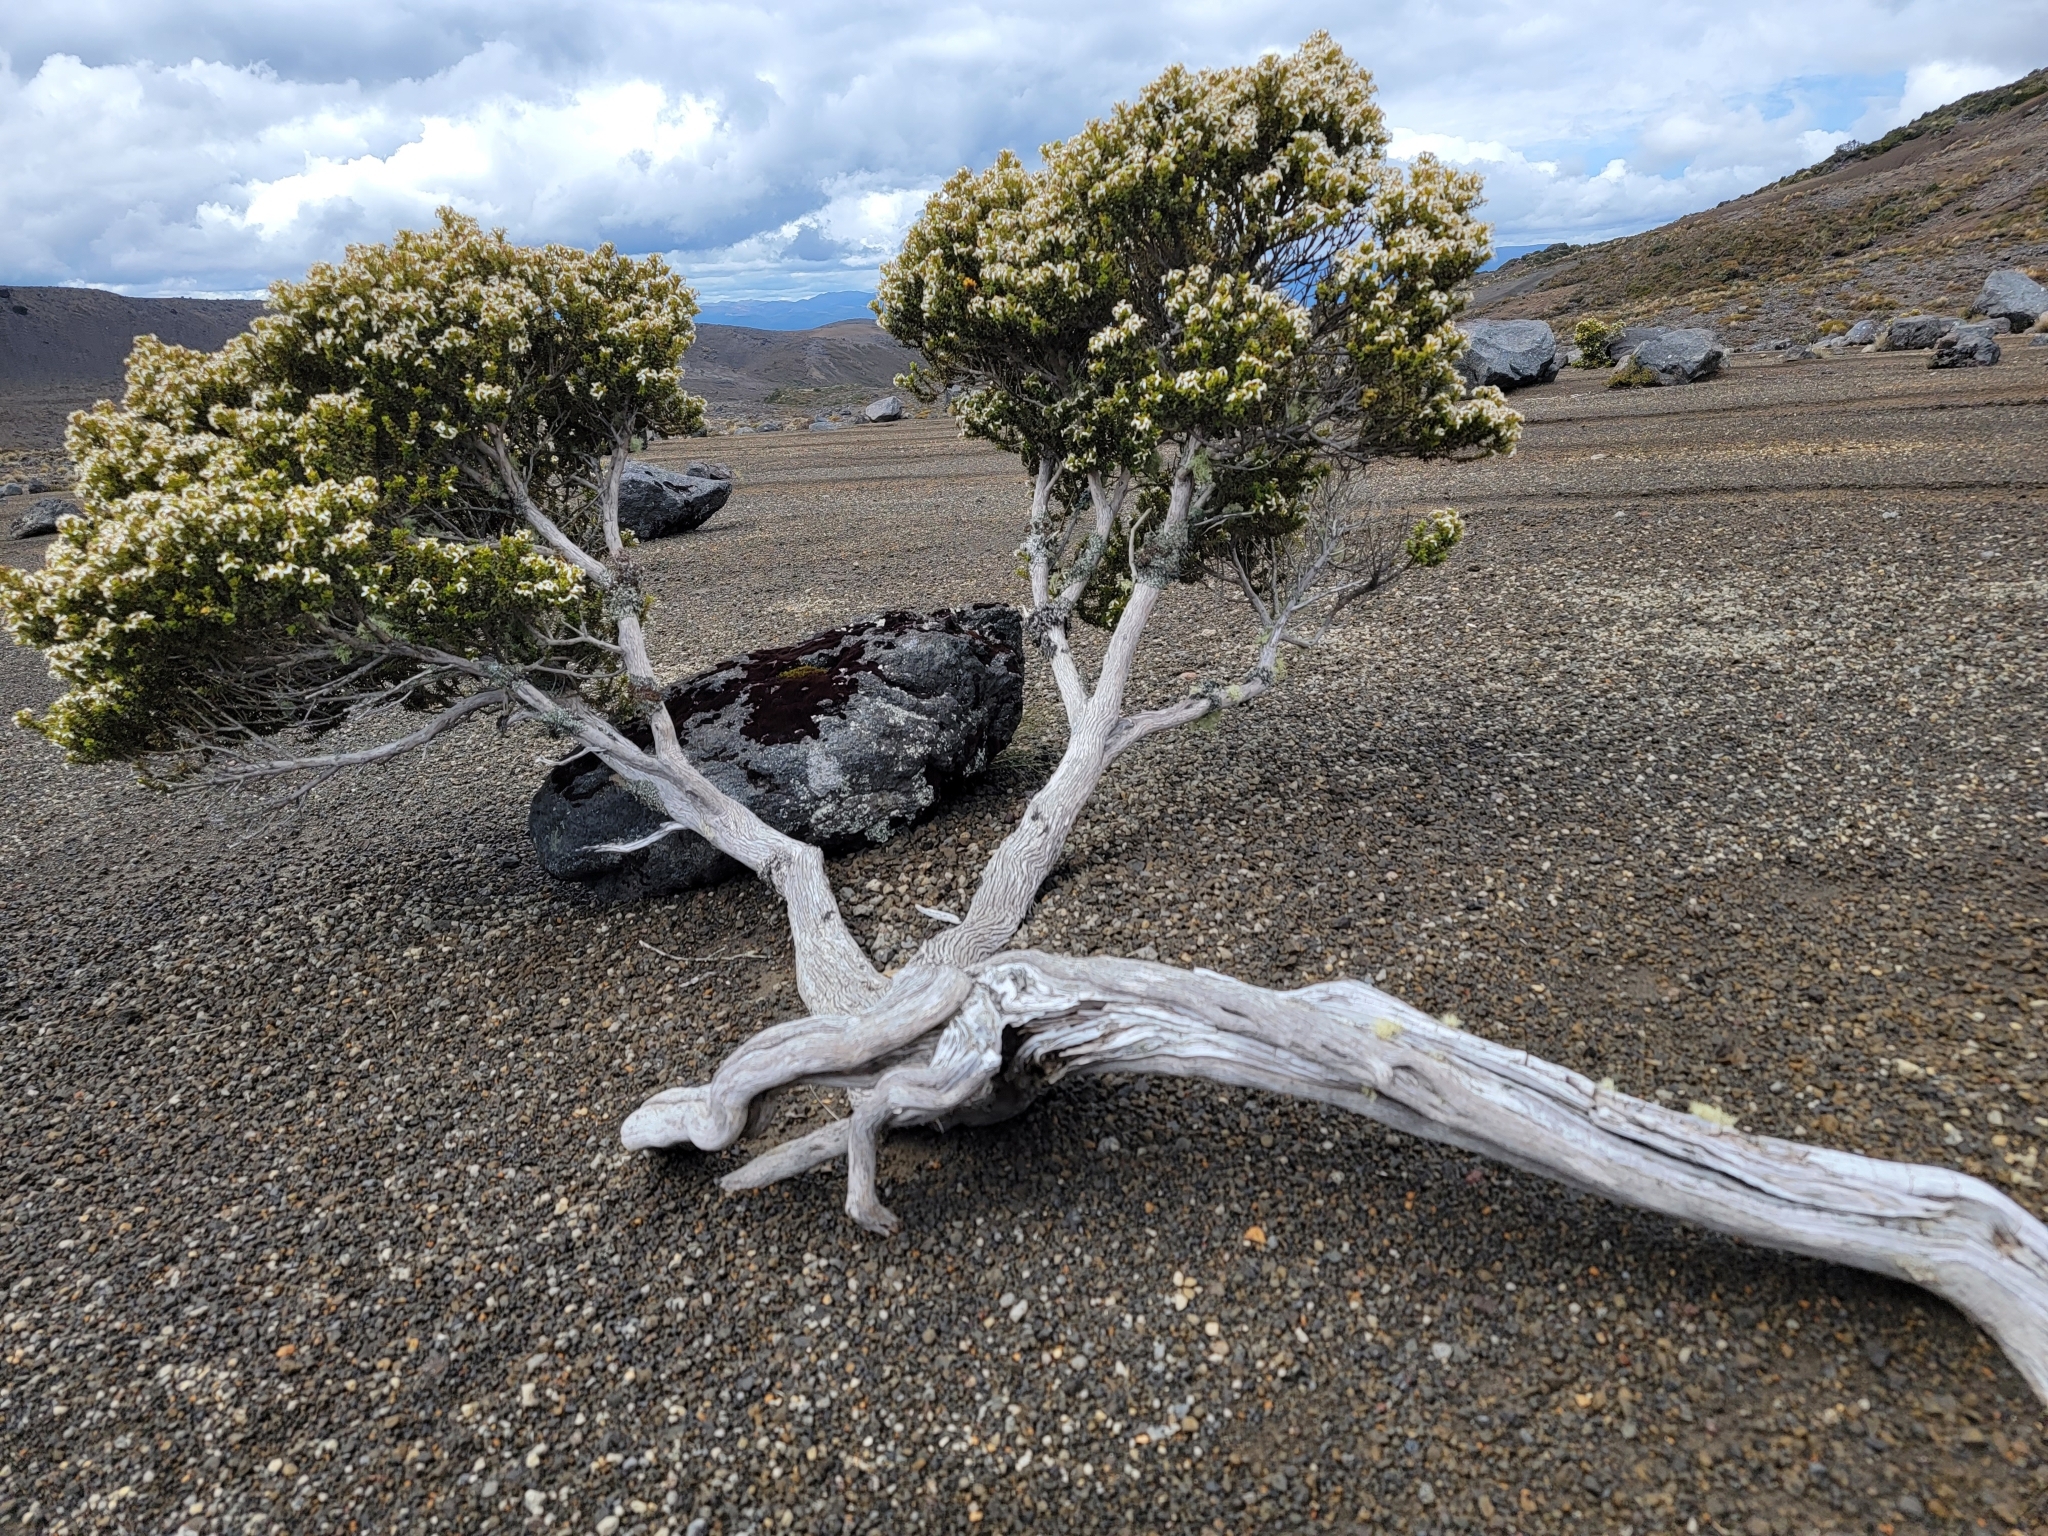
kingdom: Plantae
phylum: Tracheophyta
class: Magnoliopsida
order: Asterales
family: Asteraceae
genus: Olearia
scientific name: Olearia nummularifolia
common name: Sticky daisybush
